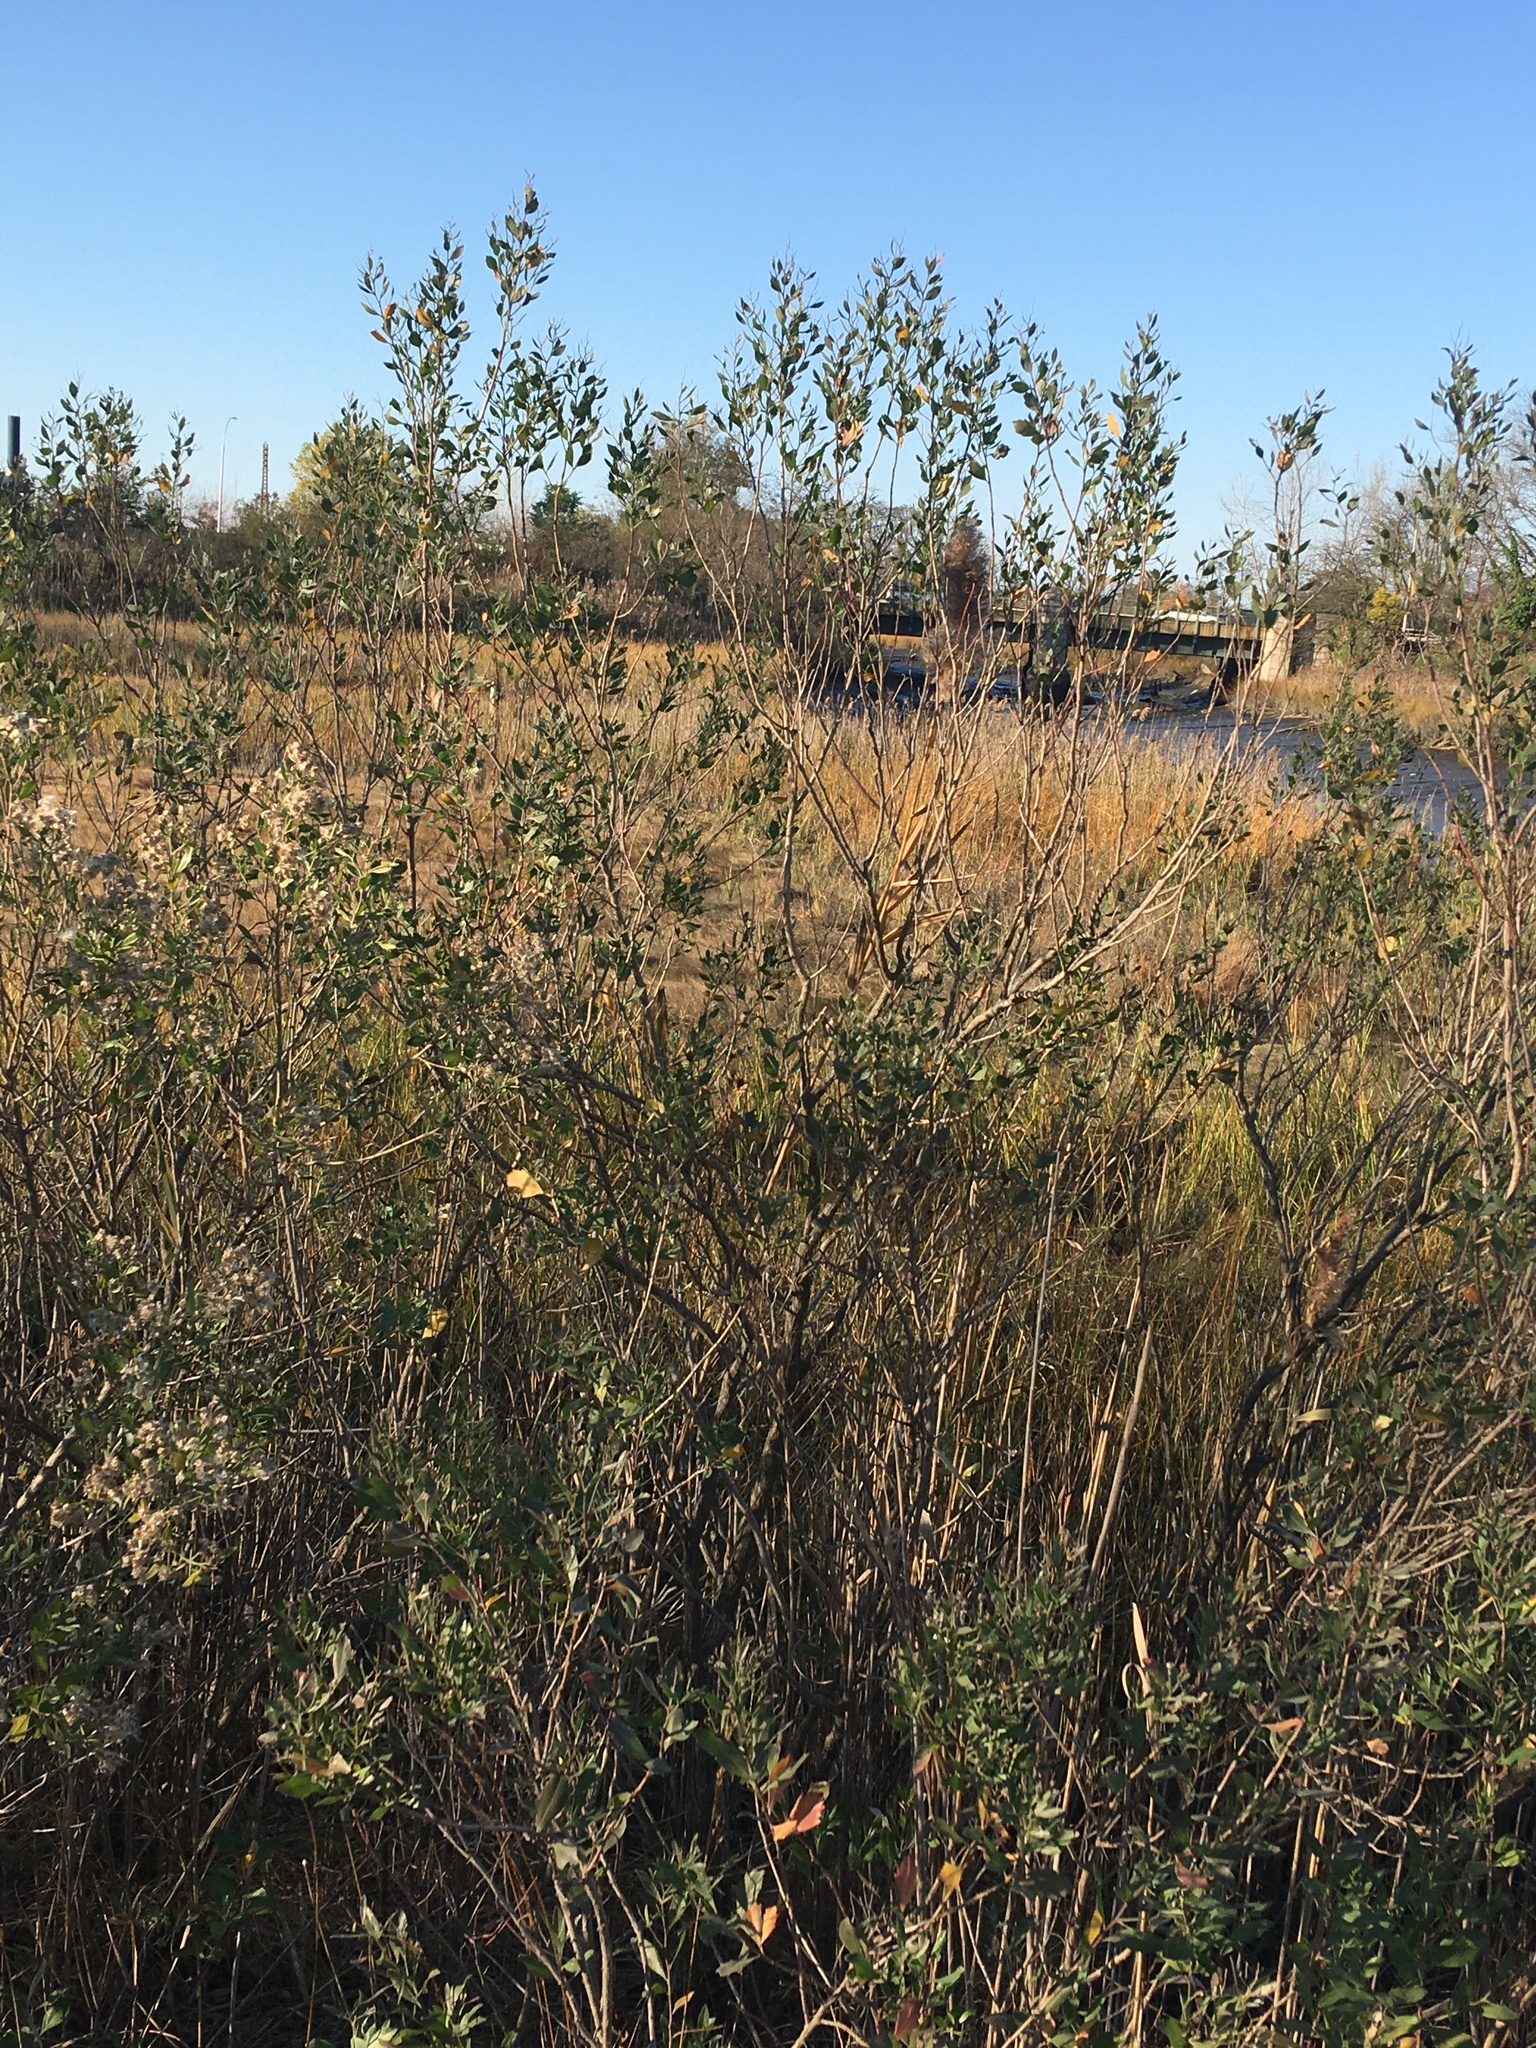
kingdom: Plantae
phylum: Tracheophyta
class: Magnoliopsida
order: Asterales
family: Asteraceae
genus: Baccharis
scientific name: Baccharis halimifolia
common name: Eastern baccharis
